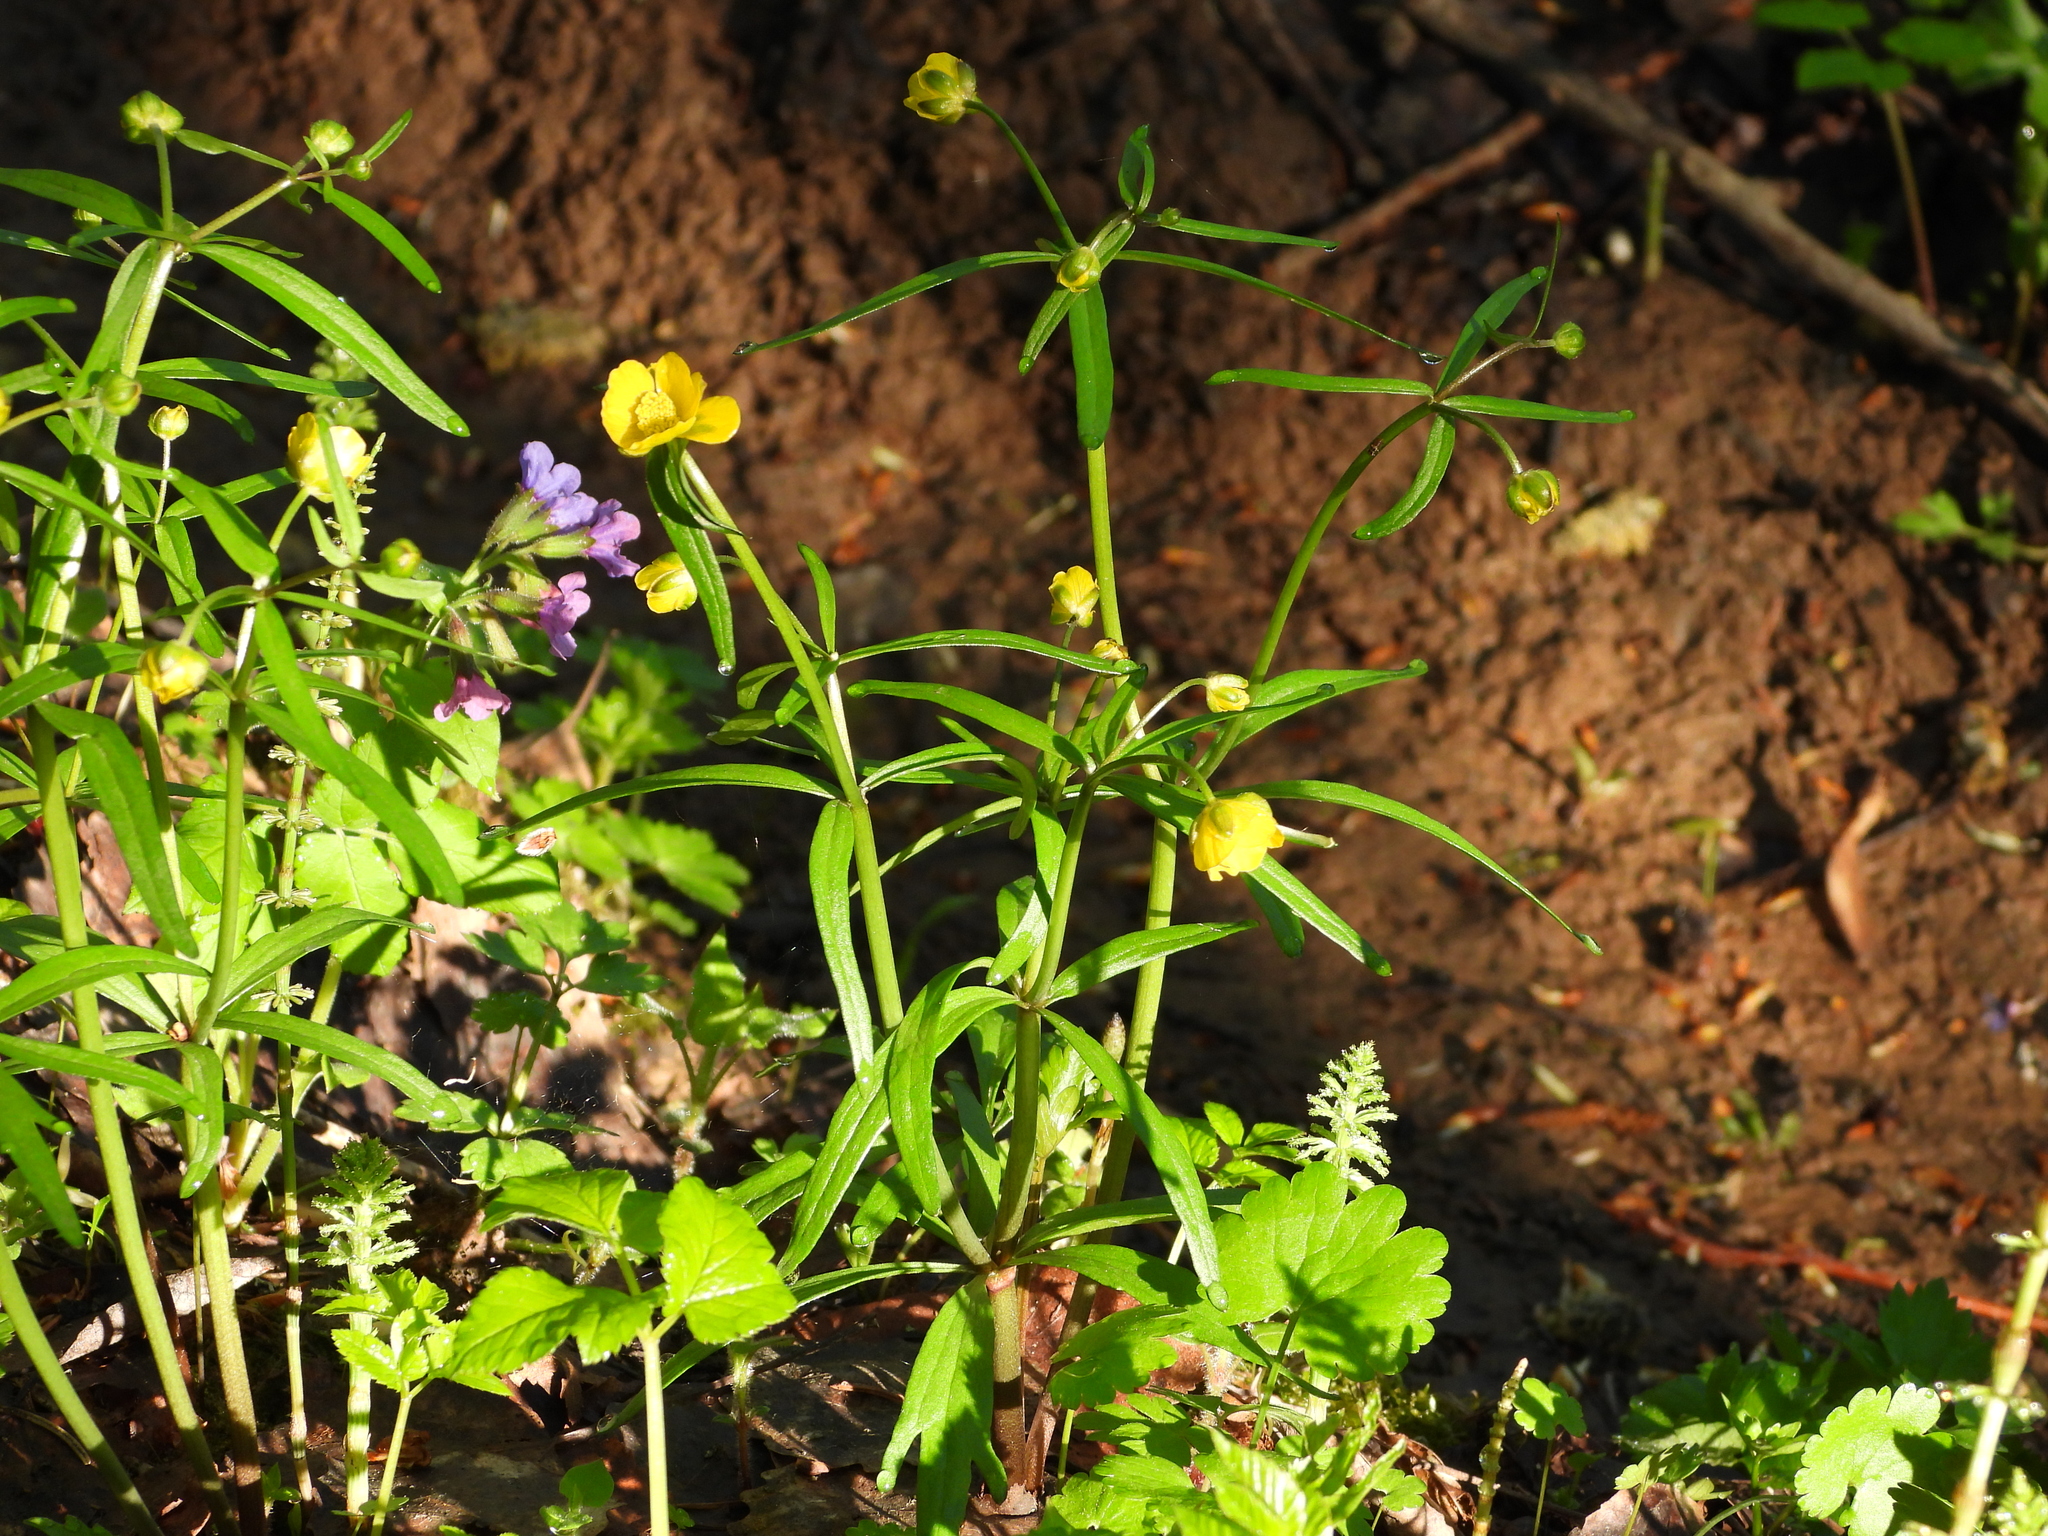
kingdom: Plantae
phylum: Tracheophyta
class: Magnoliopsida
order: Ranunculales
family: Ranunculaceae
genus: Ranunculus
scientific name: Ranunculus monophyllus
